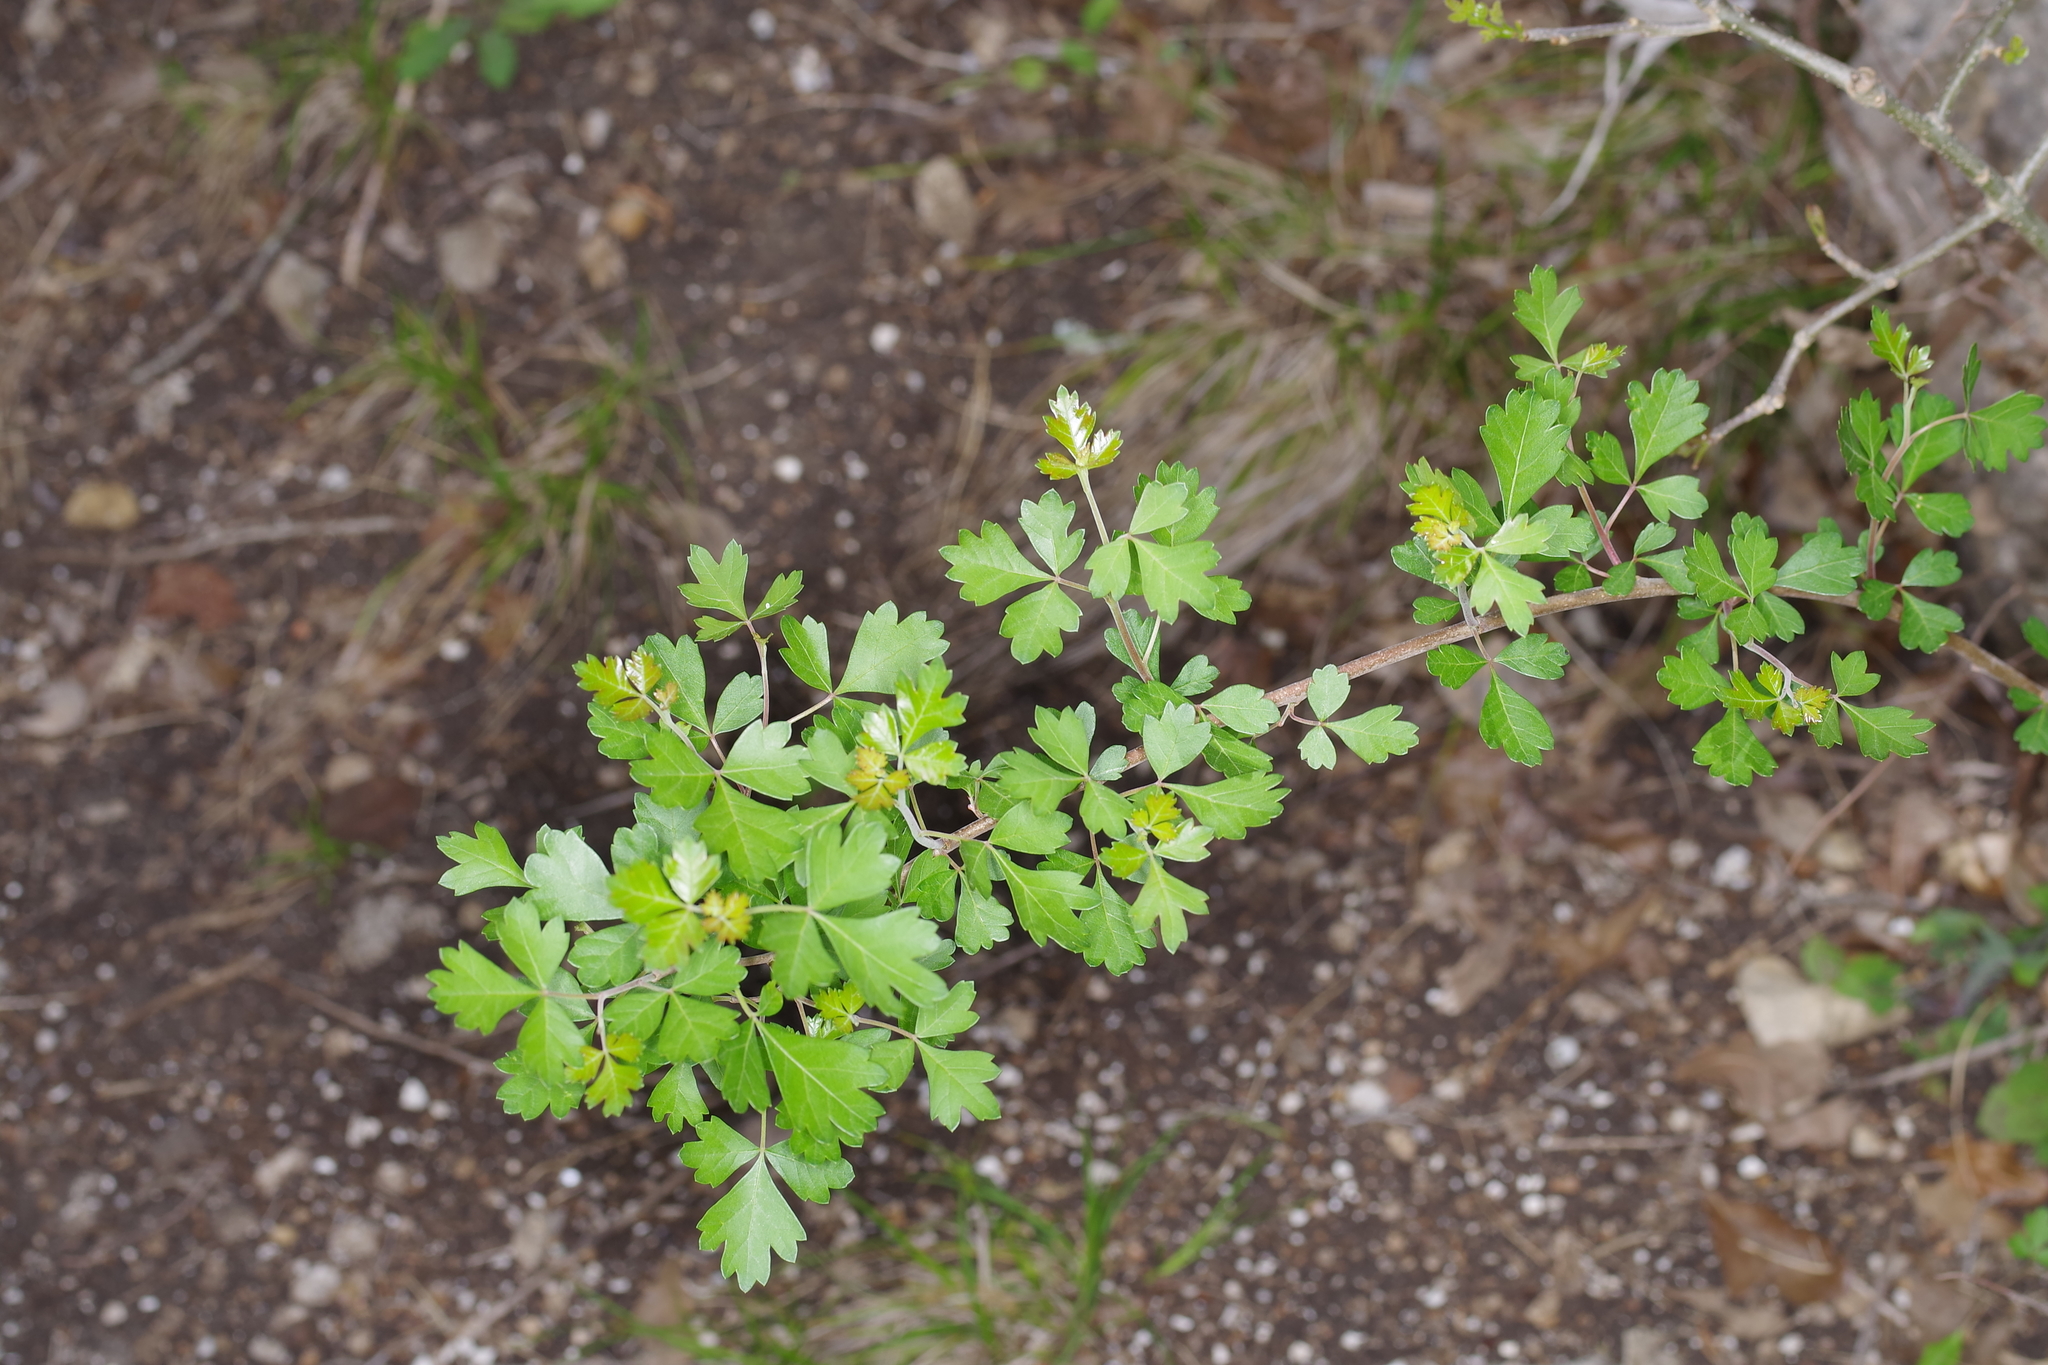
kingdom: Plantae
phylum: Tracheophyta
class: Magnoliopsida
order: Sapindales
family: Anacardiaceae
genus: Rhus
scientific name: Rhus aromatica
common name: Aromatic sumac
